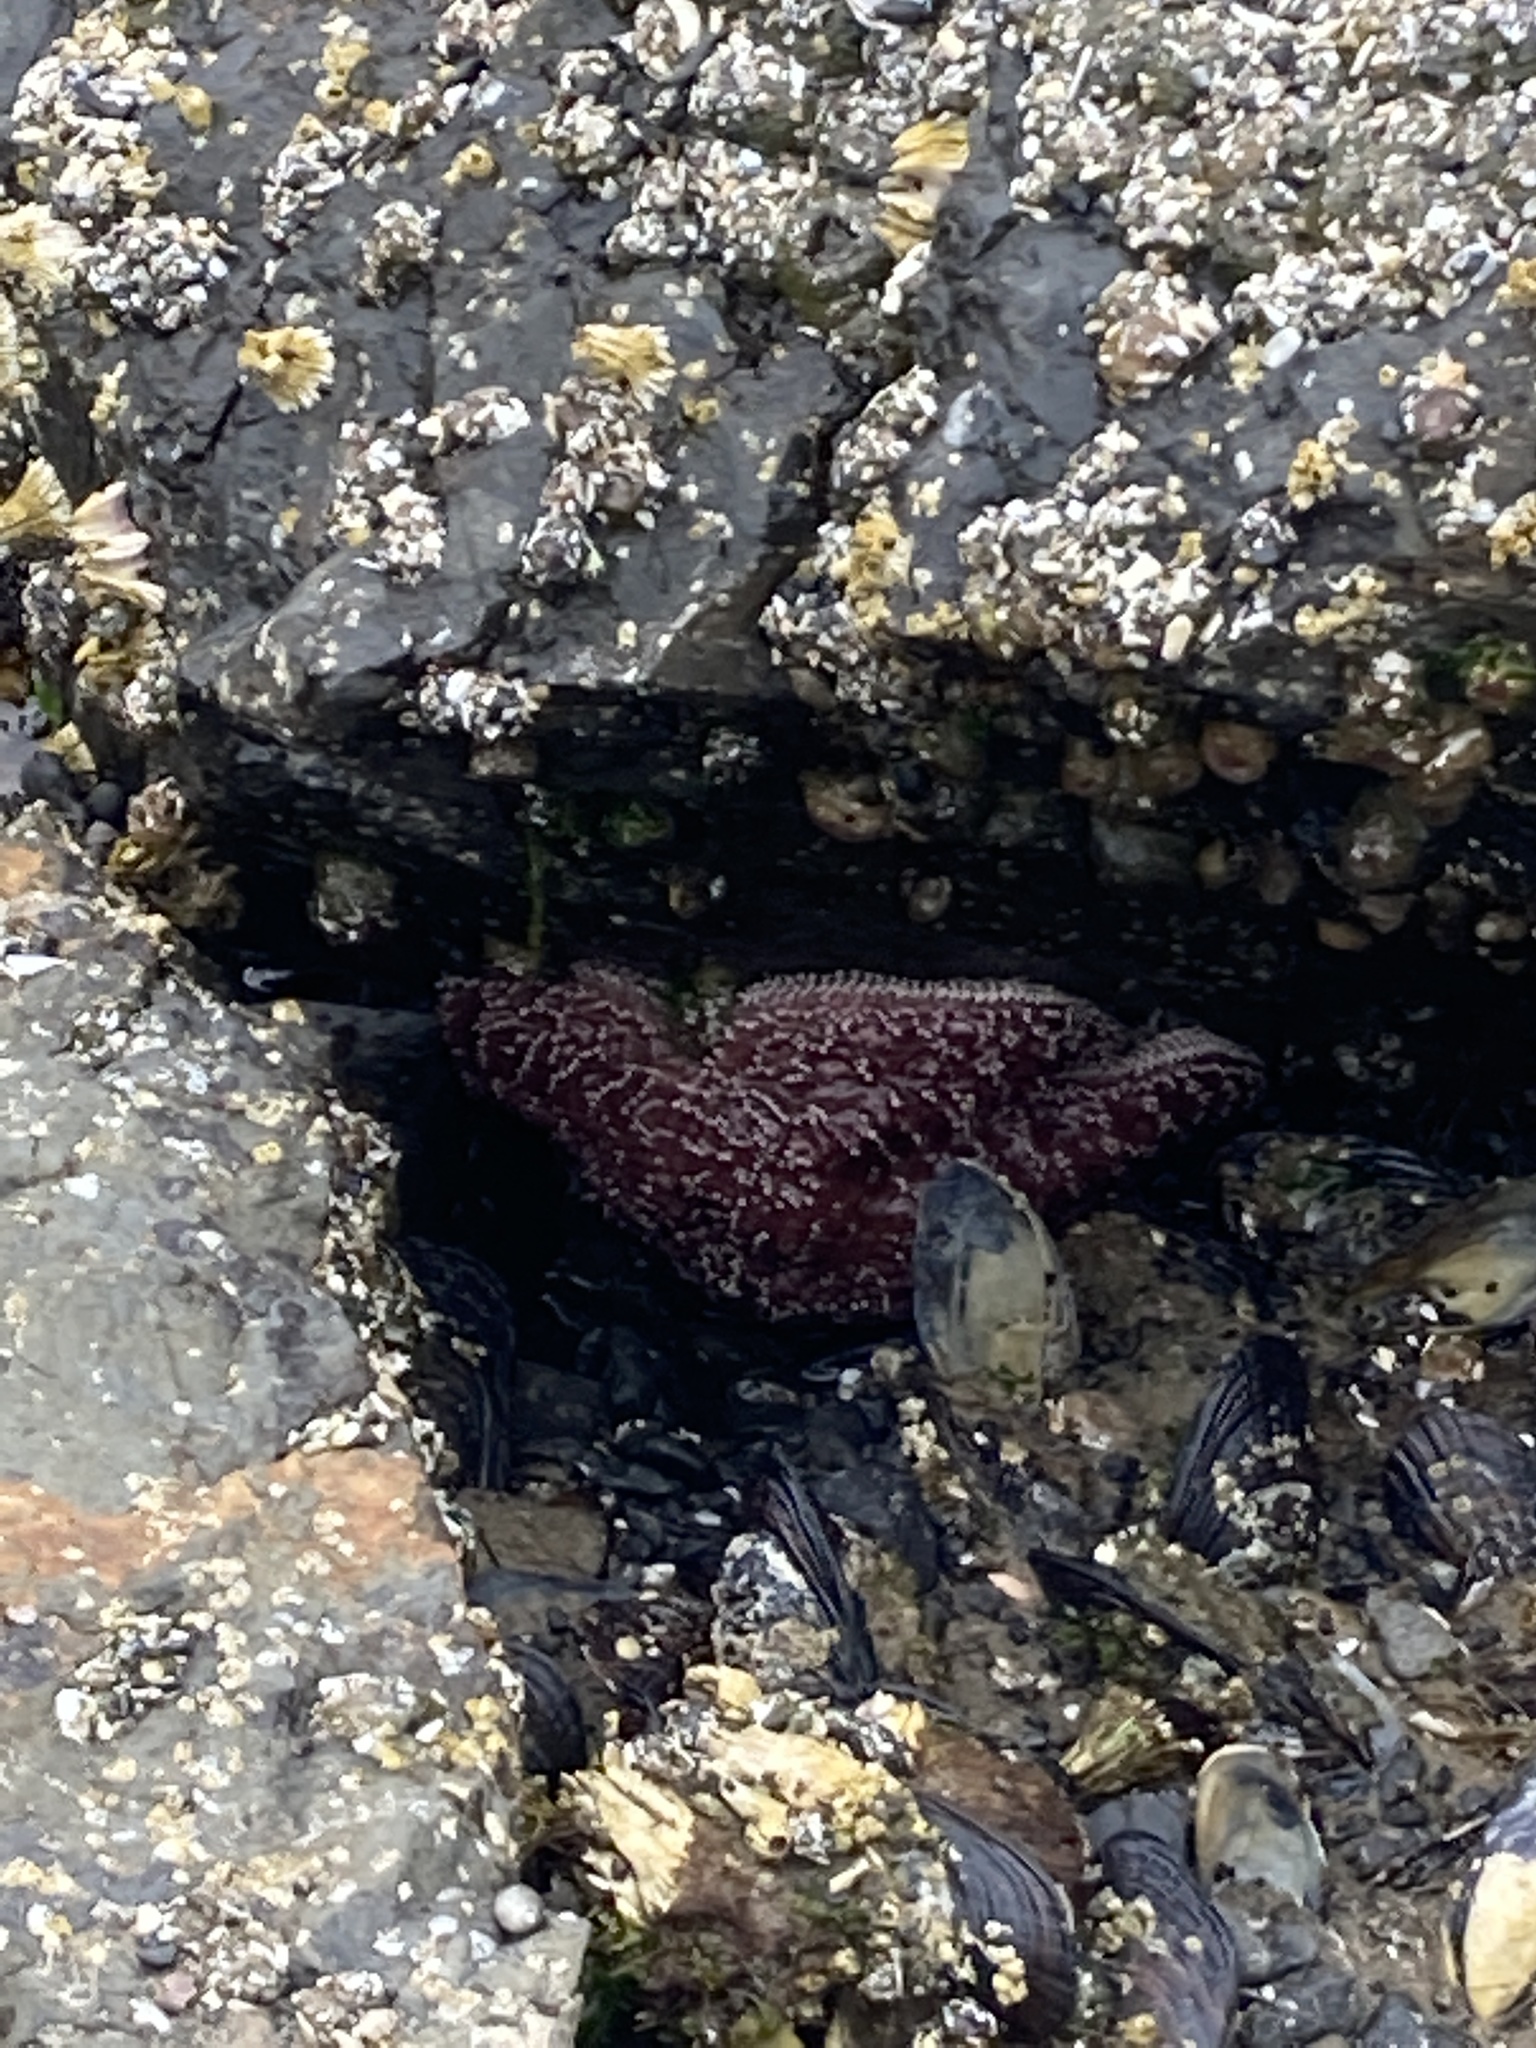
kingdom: Animalia
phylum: Echinodermata
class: Asteroidea
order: Forcipulatida
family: Asteriidae
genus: Pisaster
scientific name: Pisaster ochraceus
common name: Ochre stars
